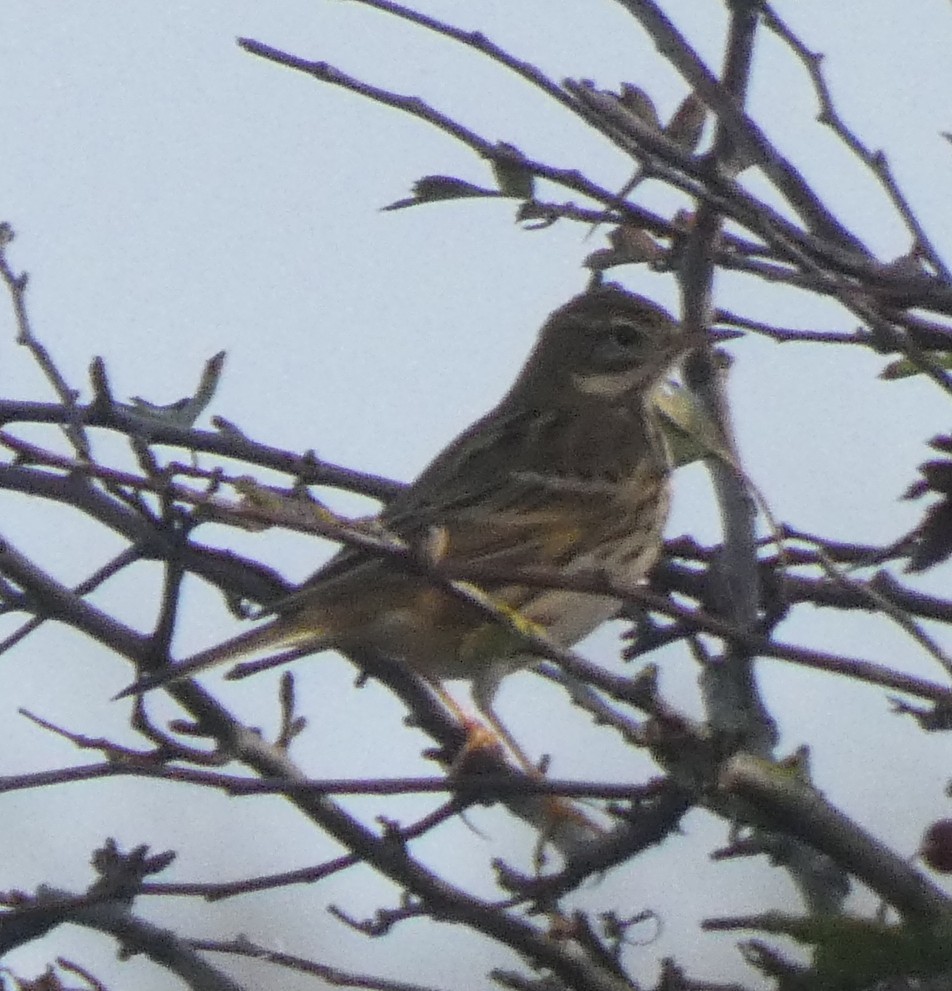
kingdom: Animalia
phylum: Chordata
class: Aves
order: Passeriformes
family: Motacillidae
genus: Anthus
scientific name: Anthus pratensis
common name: Meadow pipit
